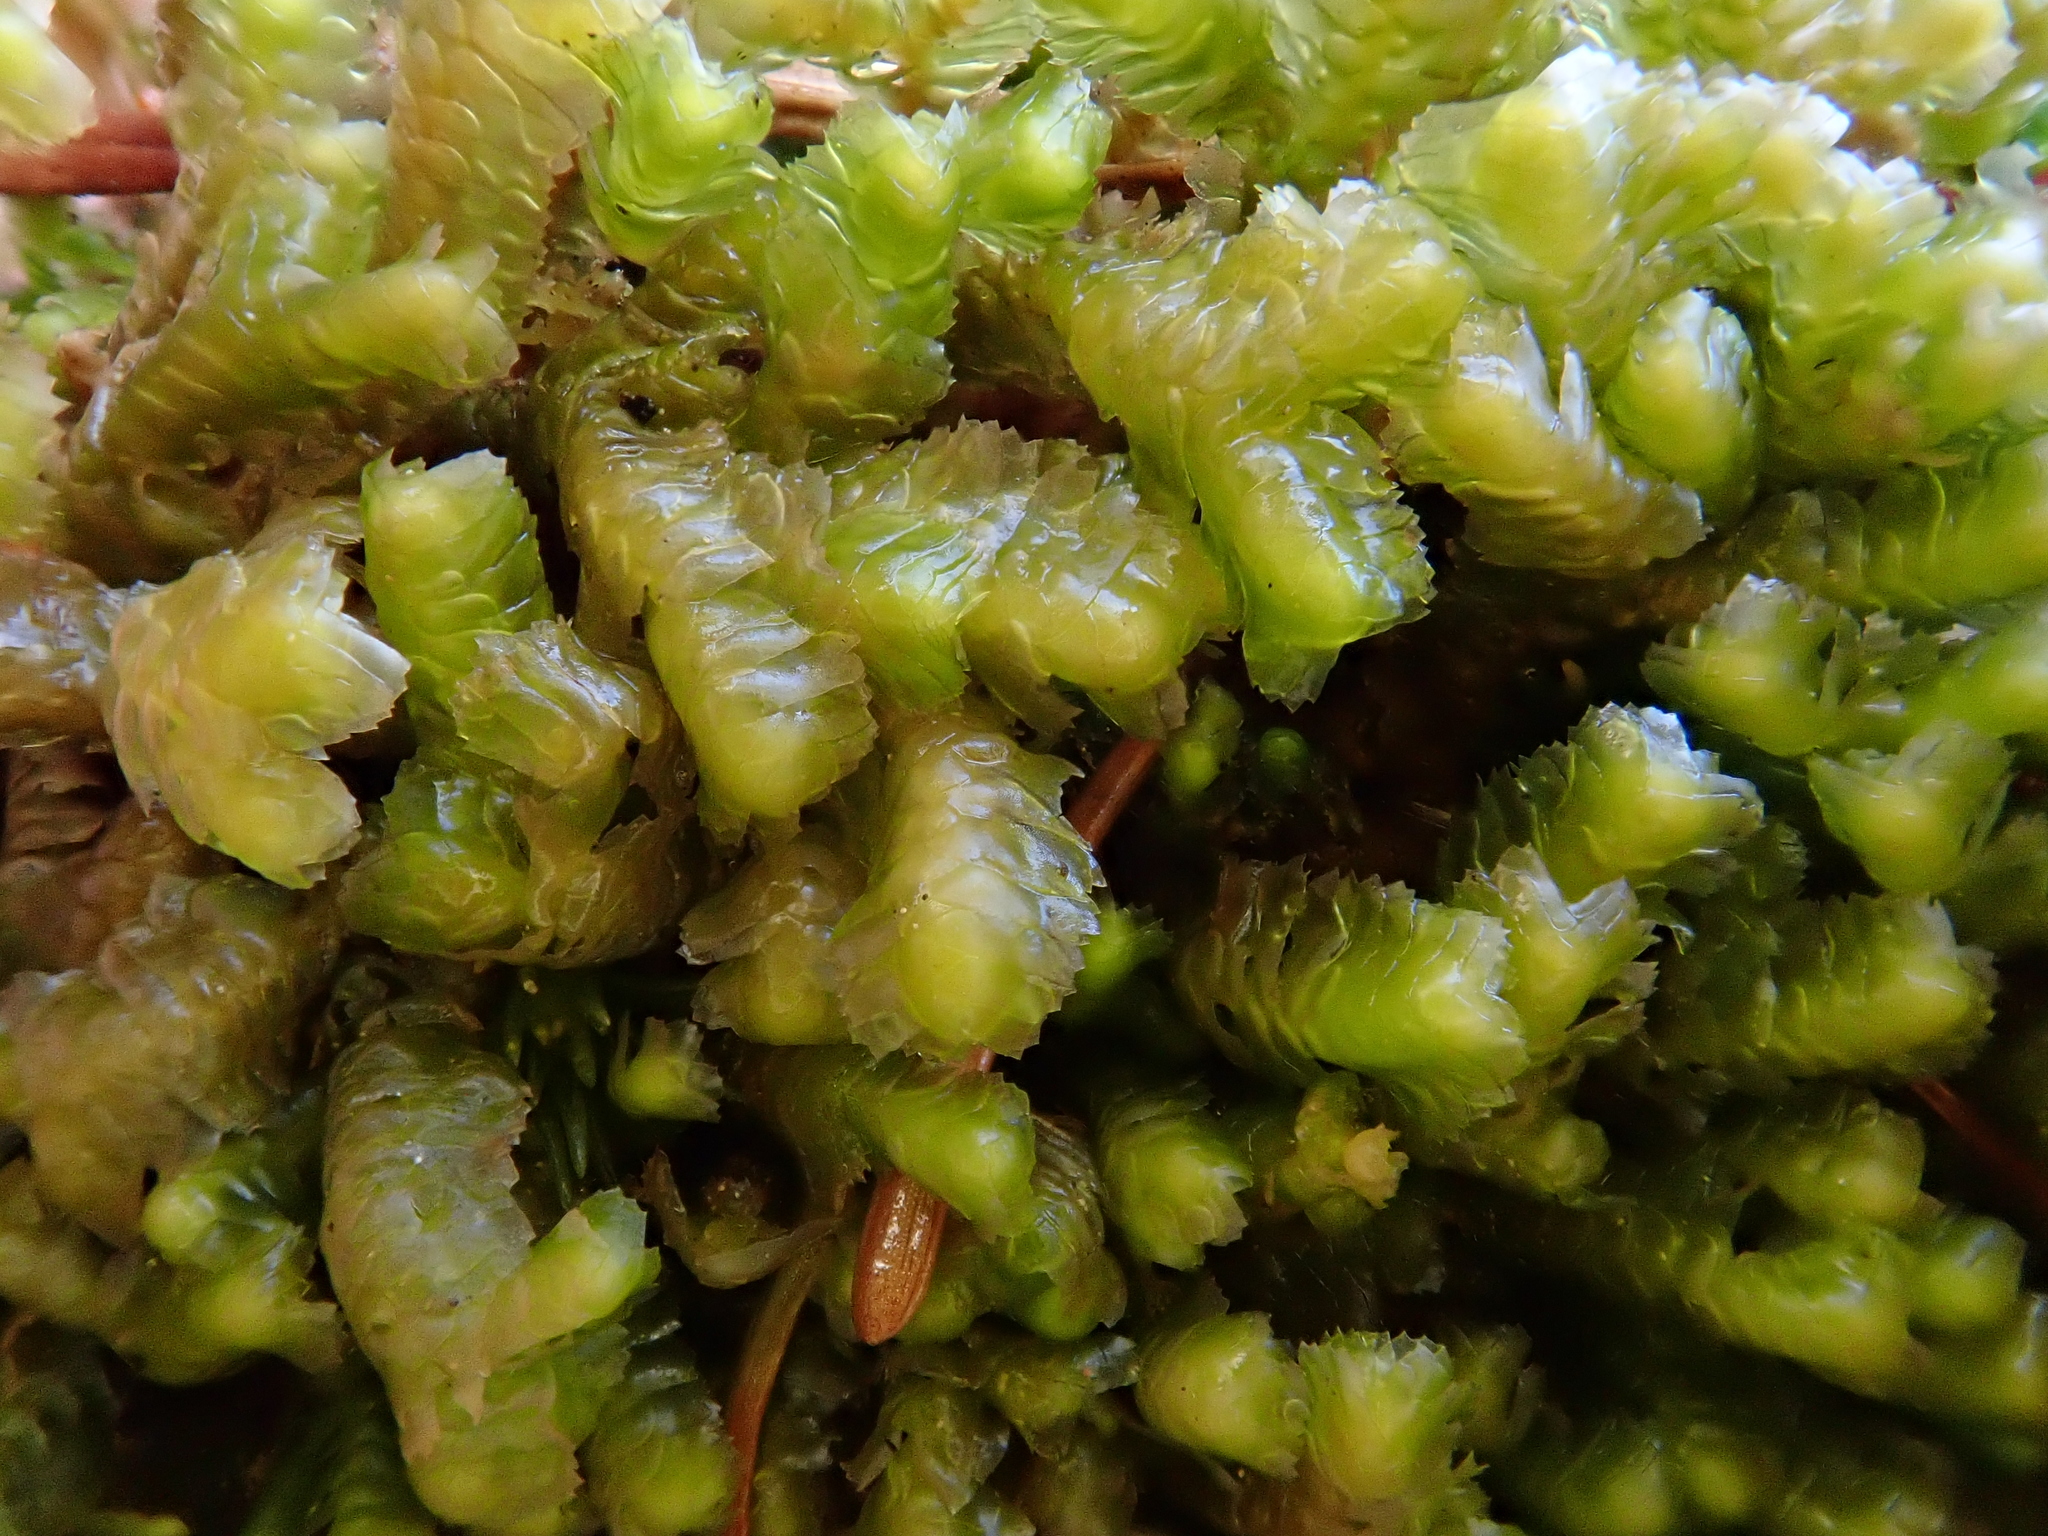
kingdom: Plantae
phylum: Marchantiophyta
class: Jungermanniopsida
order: Jungermanniales
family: Lepidoziaceae
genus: Bazzania
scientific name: Bazzania trilobata
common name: Three-lobed whipwort
